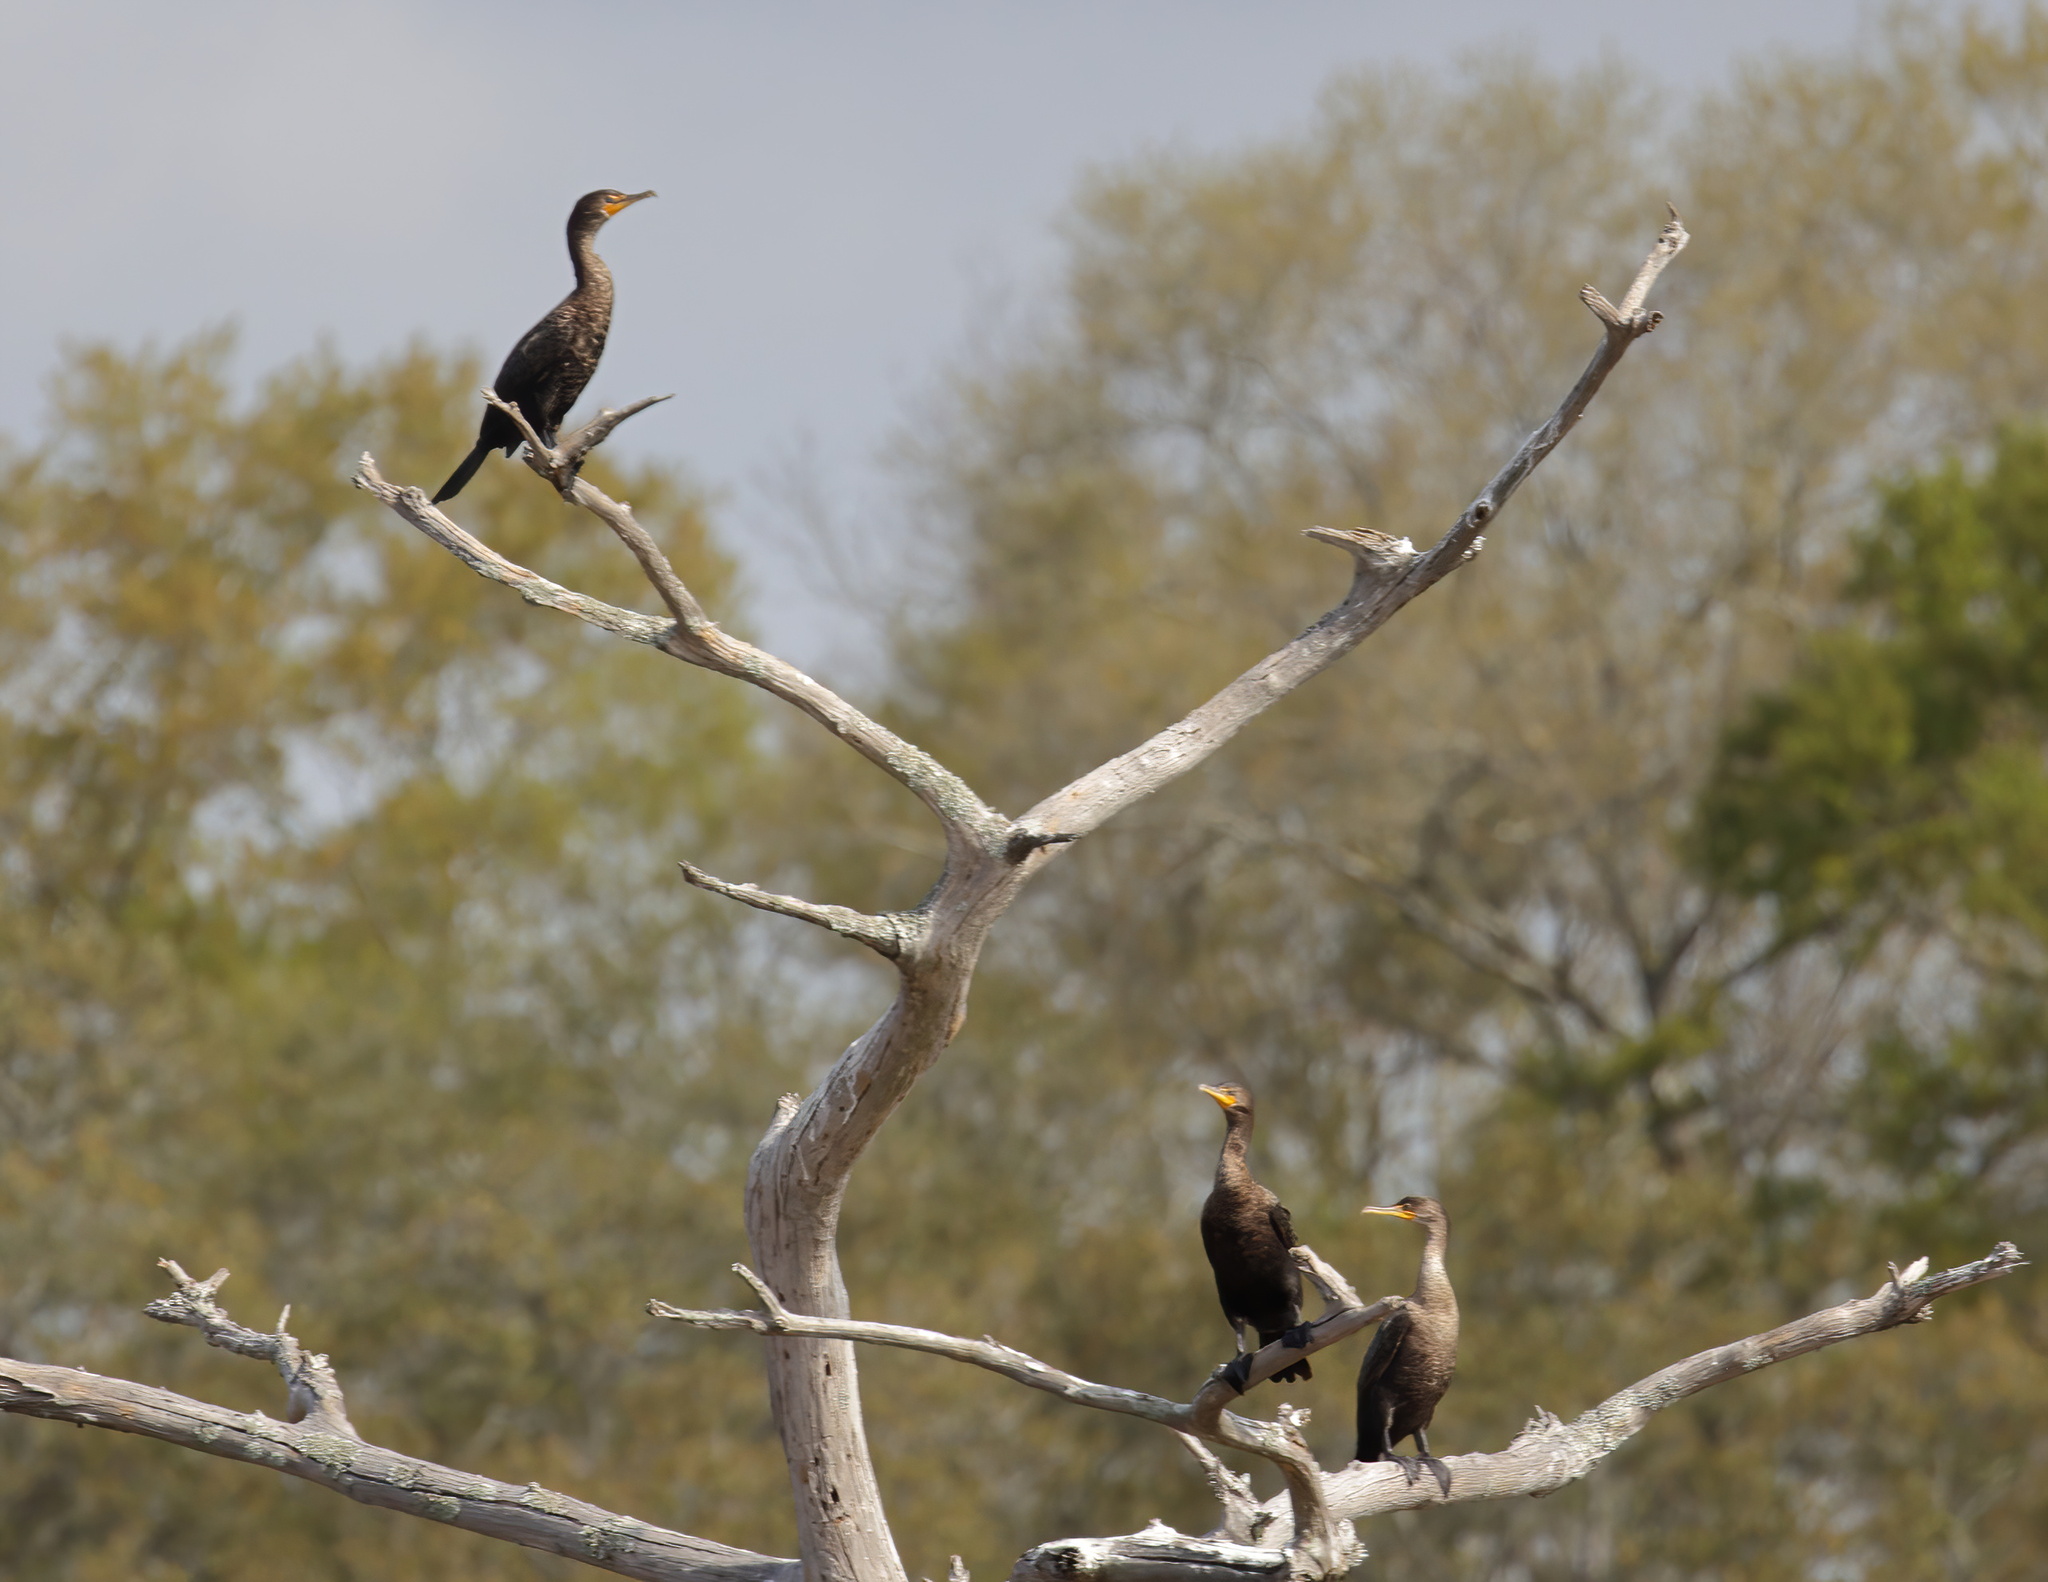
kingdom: Animalia
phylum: Chordata
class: Aves
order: Suliformes
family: Phalacrocoracidae
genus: Phalacrocorax
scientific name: Phalacrocorax auritus
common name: Double-crested cormorant
